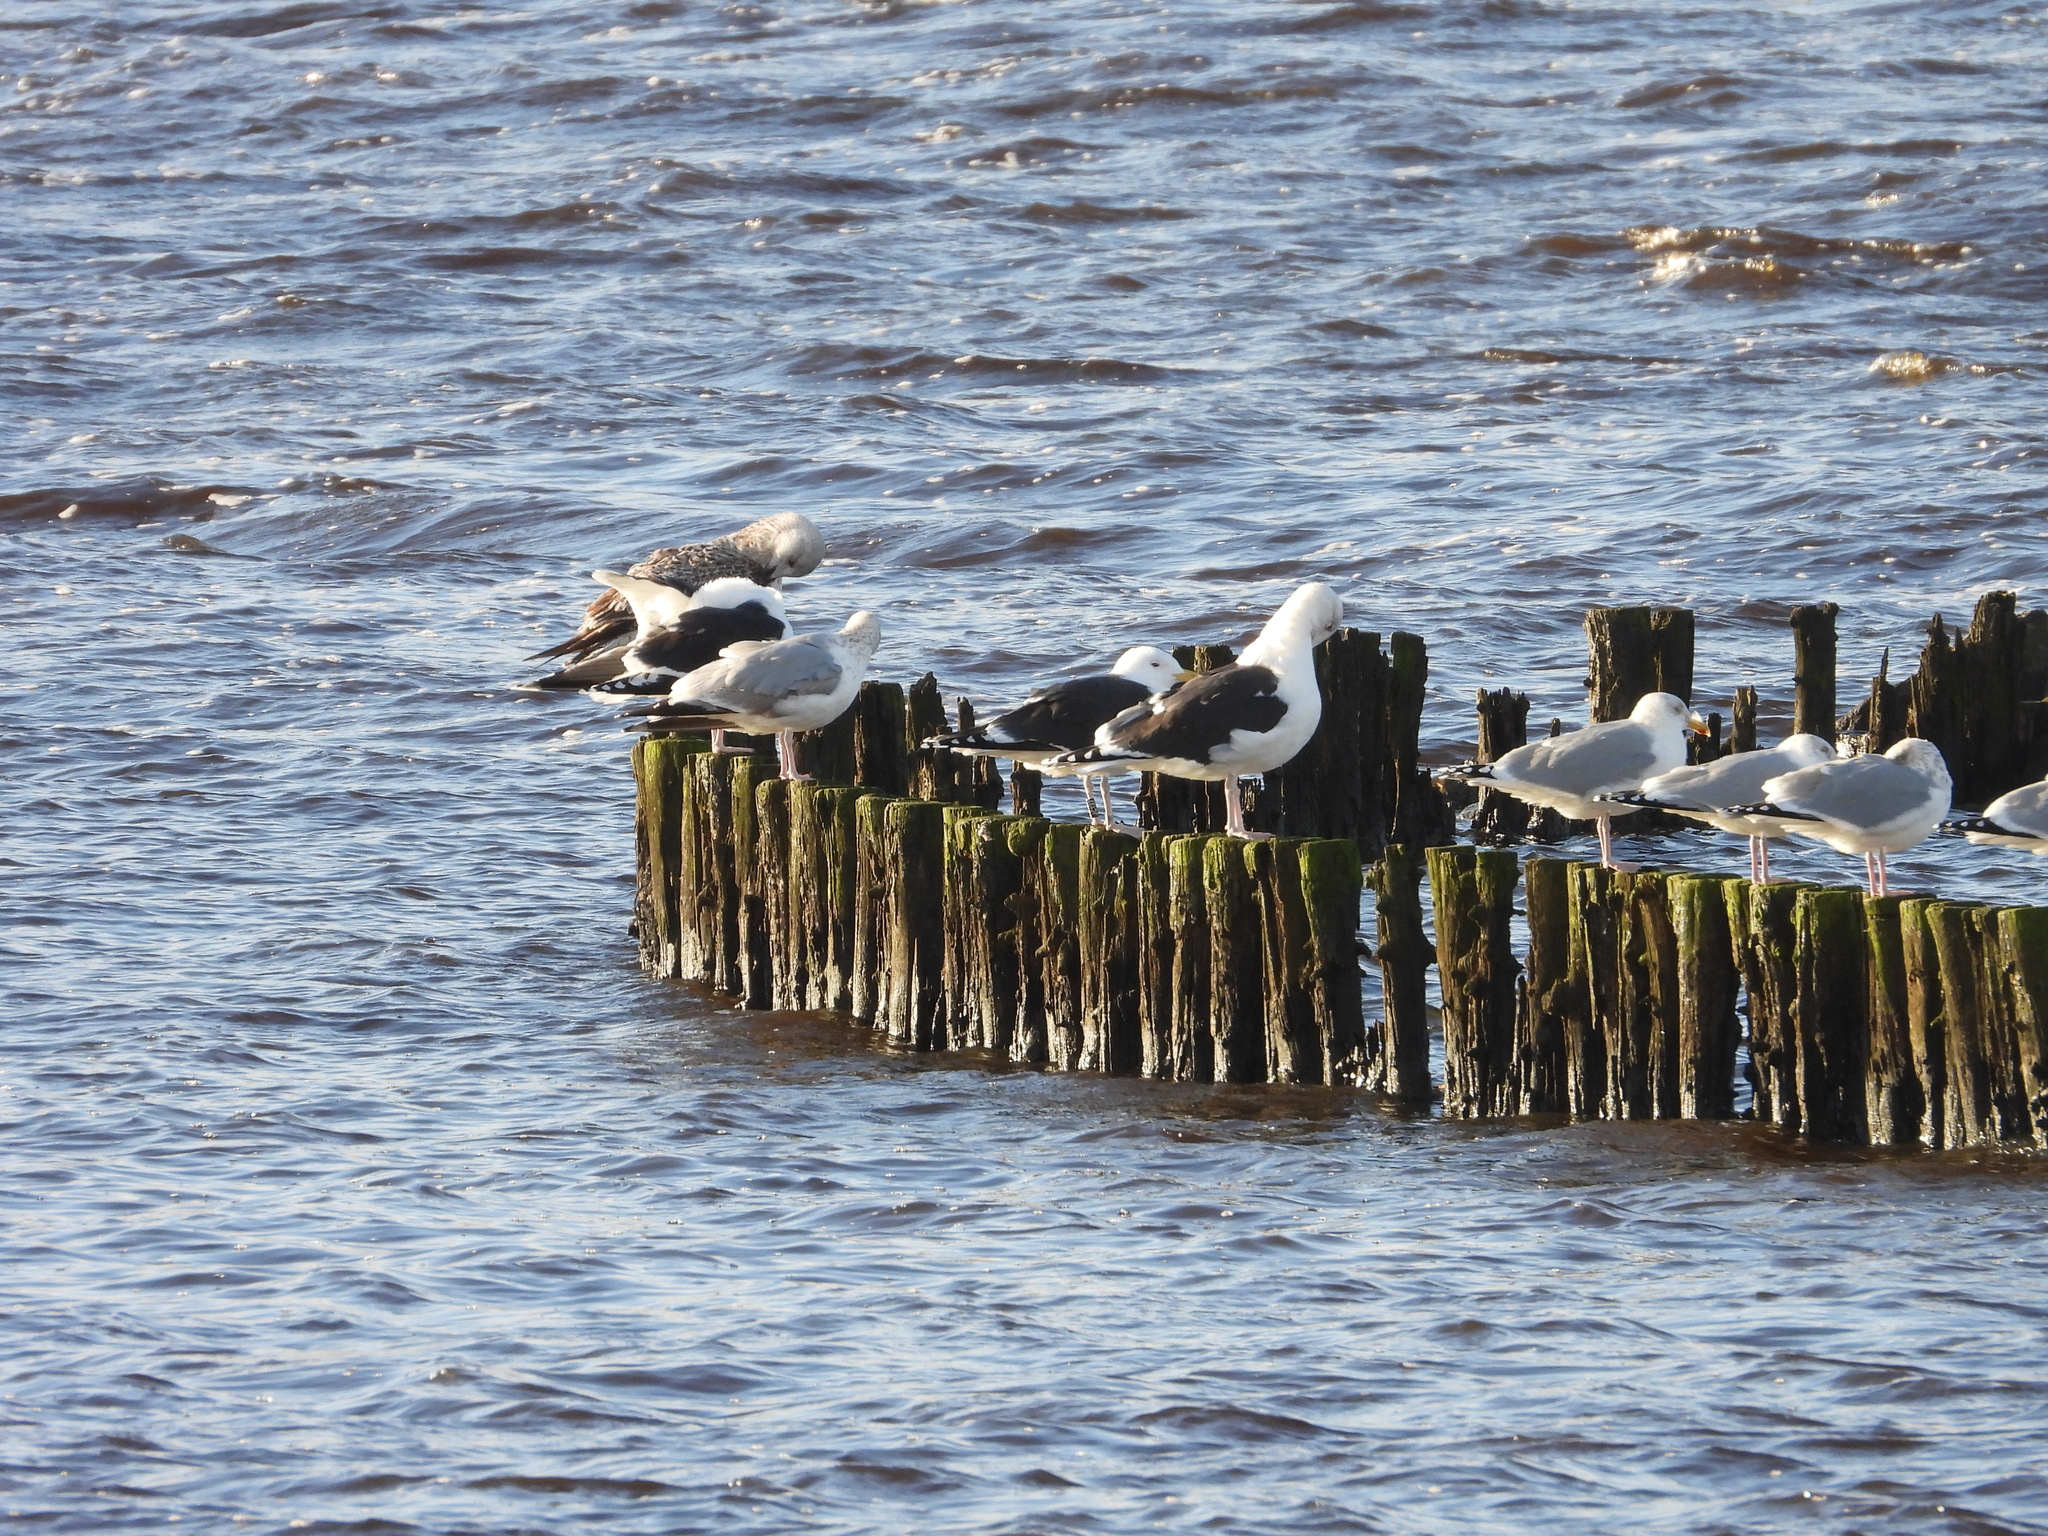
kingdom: Animalia
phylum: Chordata
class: Aves
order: Charadriiformes
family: Laridae
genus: Larus
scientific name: Larus marinus
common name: Great black-backed gull
